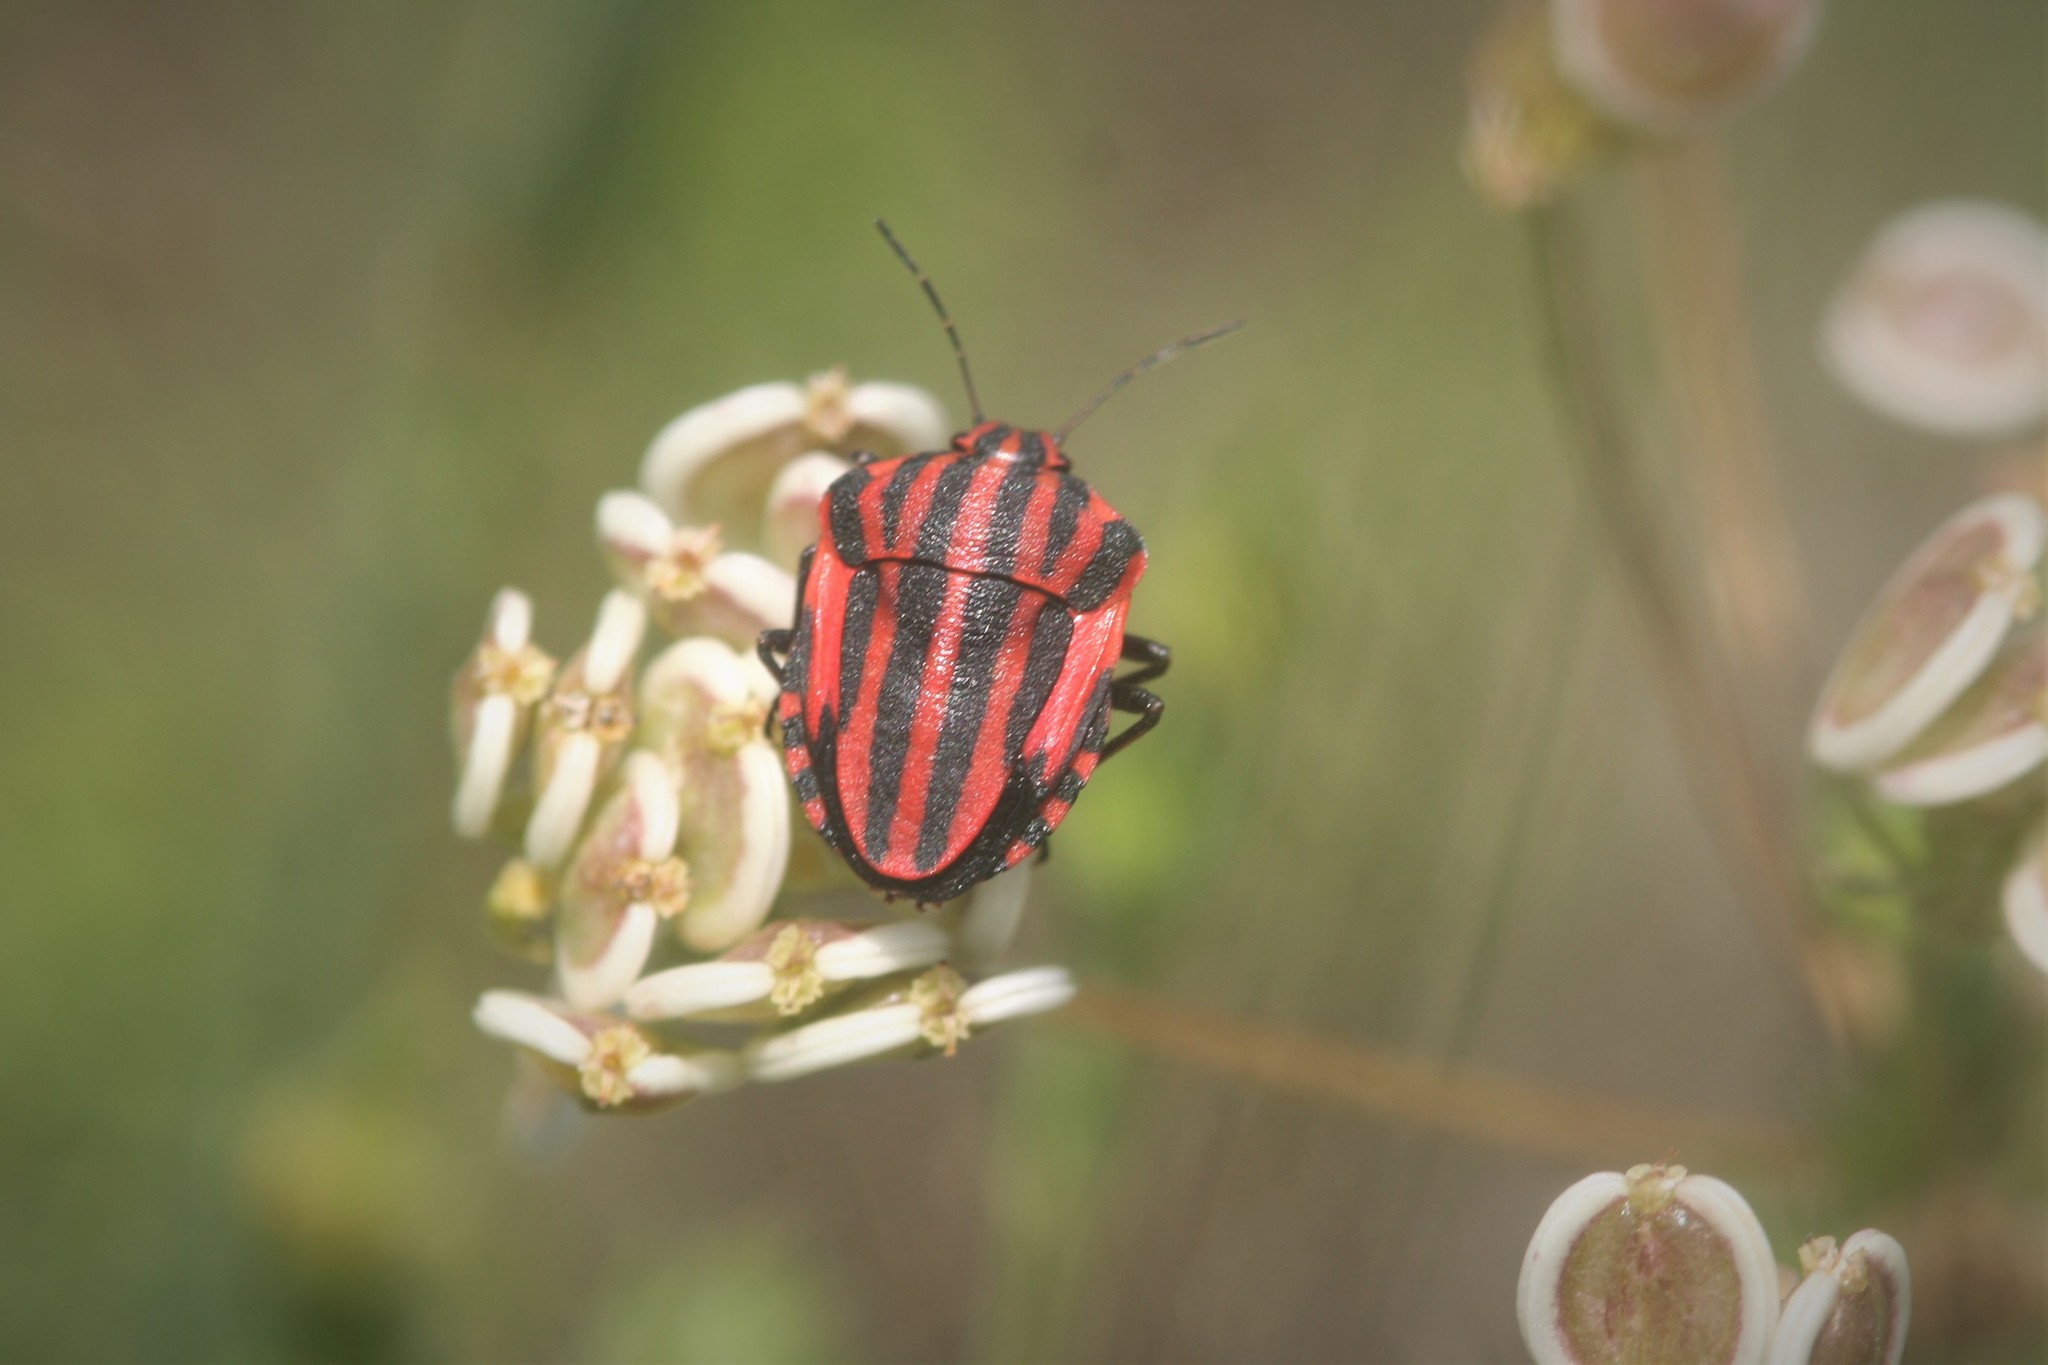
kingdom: Animalia
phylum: Arthropoda
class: Insecta
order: Hemiptera
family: Pentatomidae
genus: Graphosoma
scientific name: Graphosoma italicum
